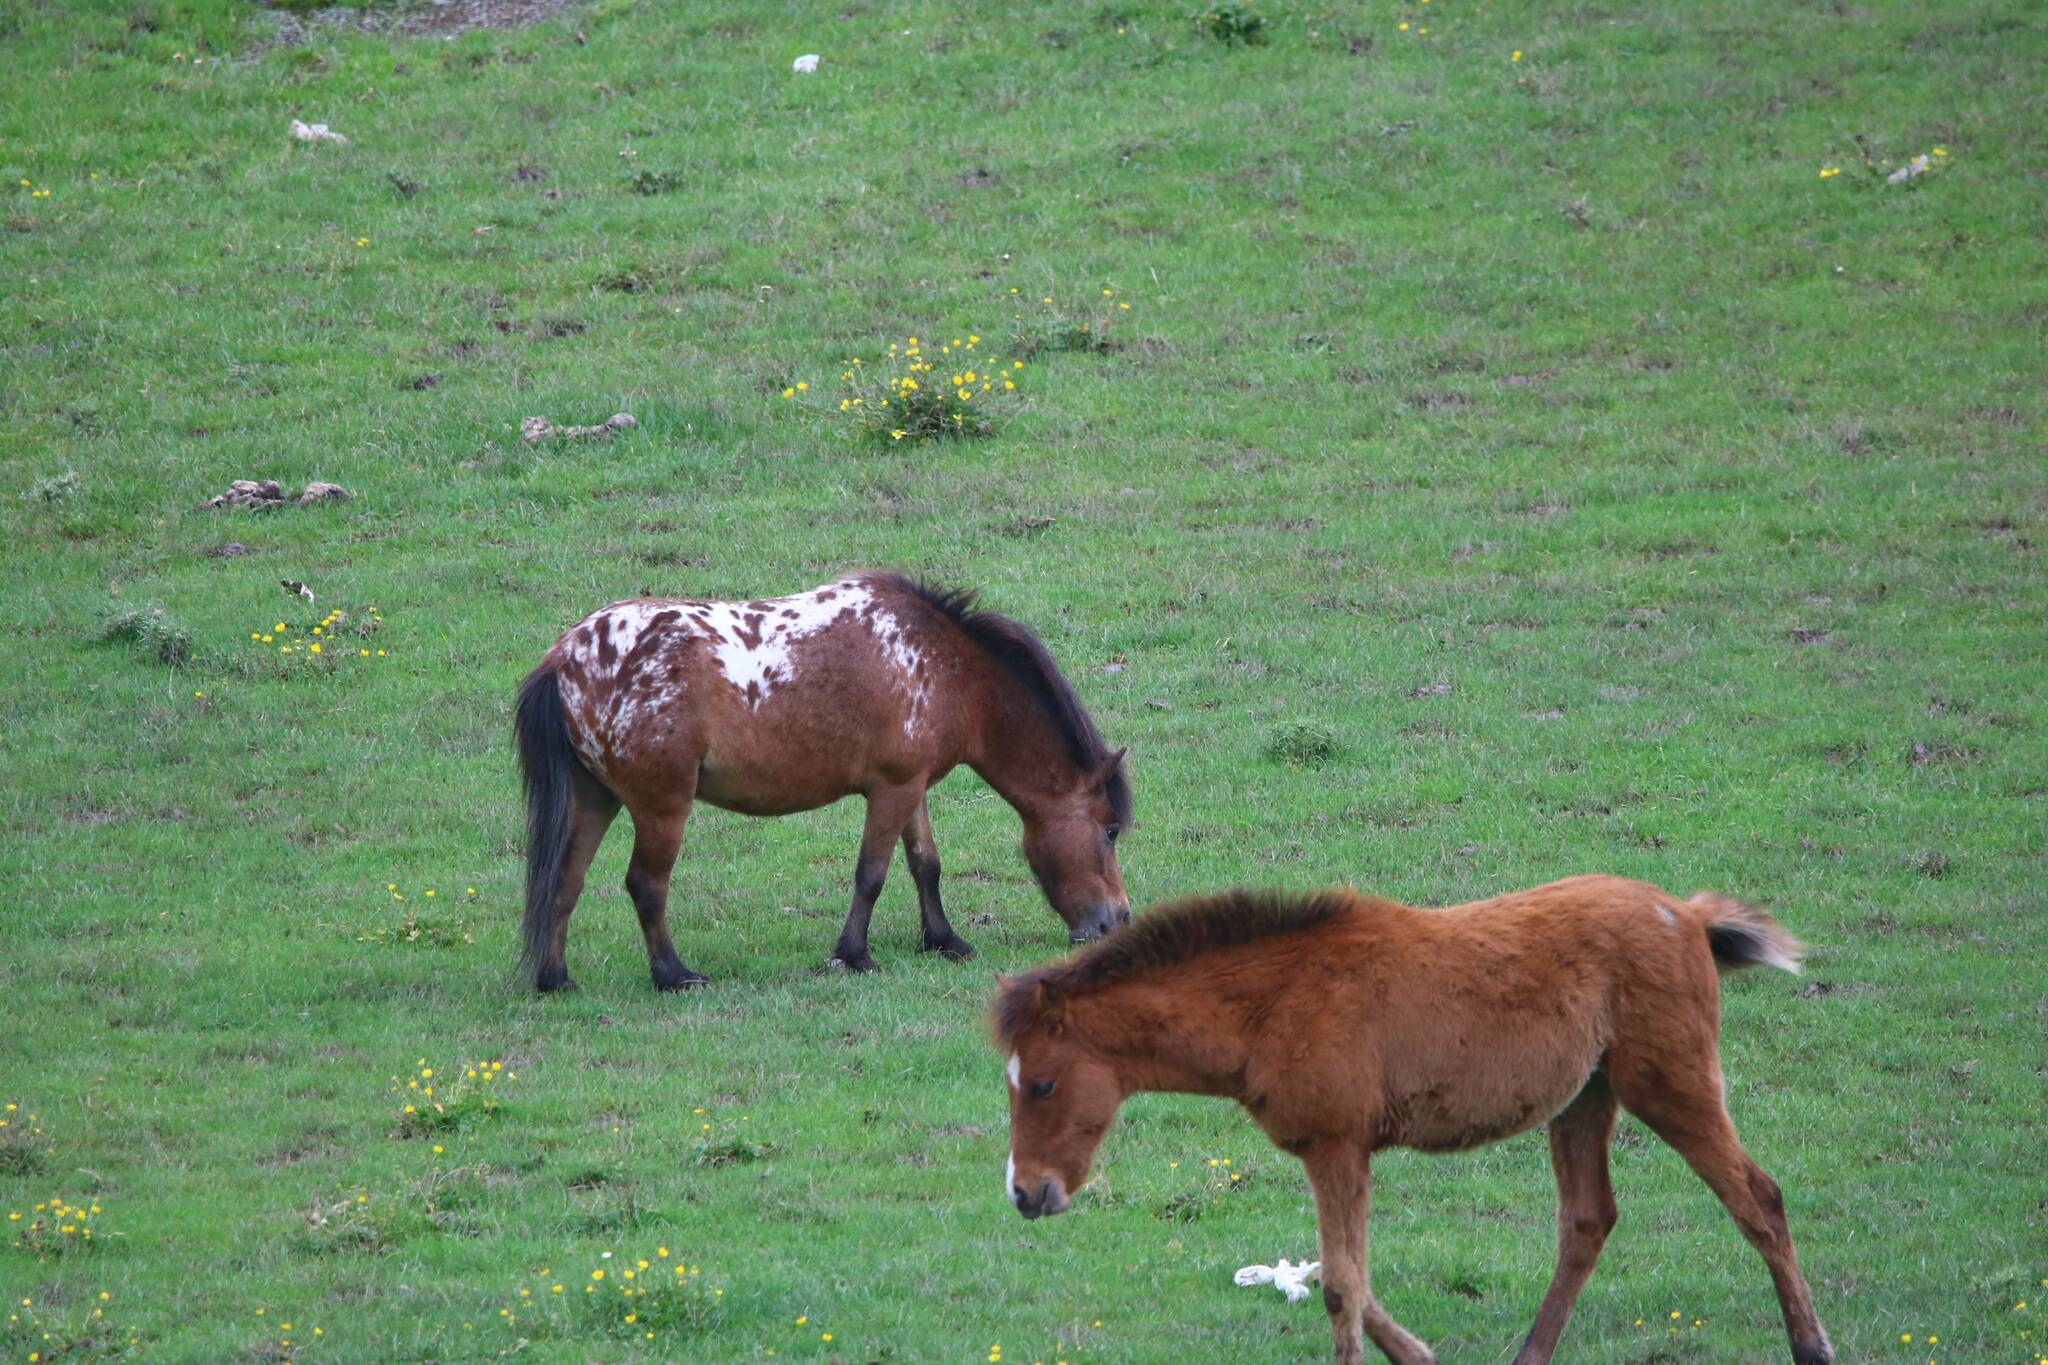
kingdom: Animalia
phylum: Chordata
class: Mammalia
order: Perissodactyla
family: Equidae
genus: Equus
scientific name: Equus caballus
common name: Horse
